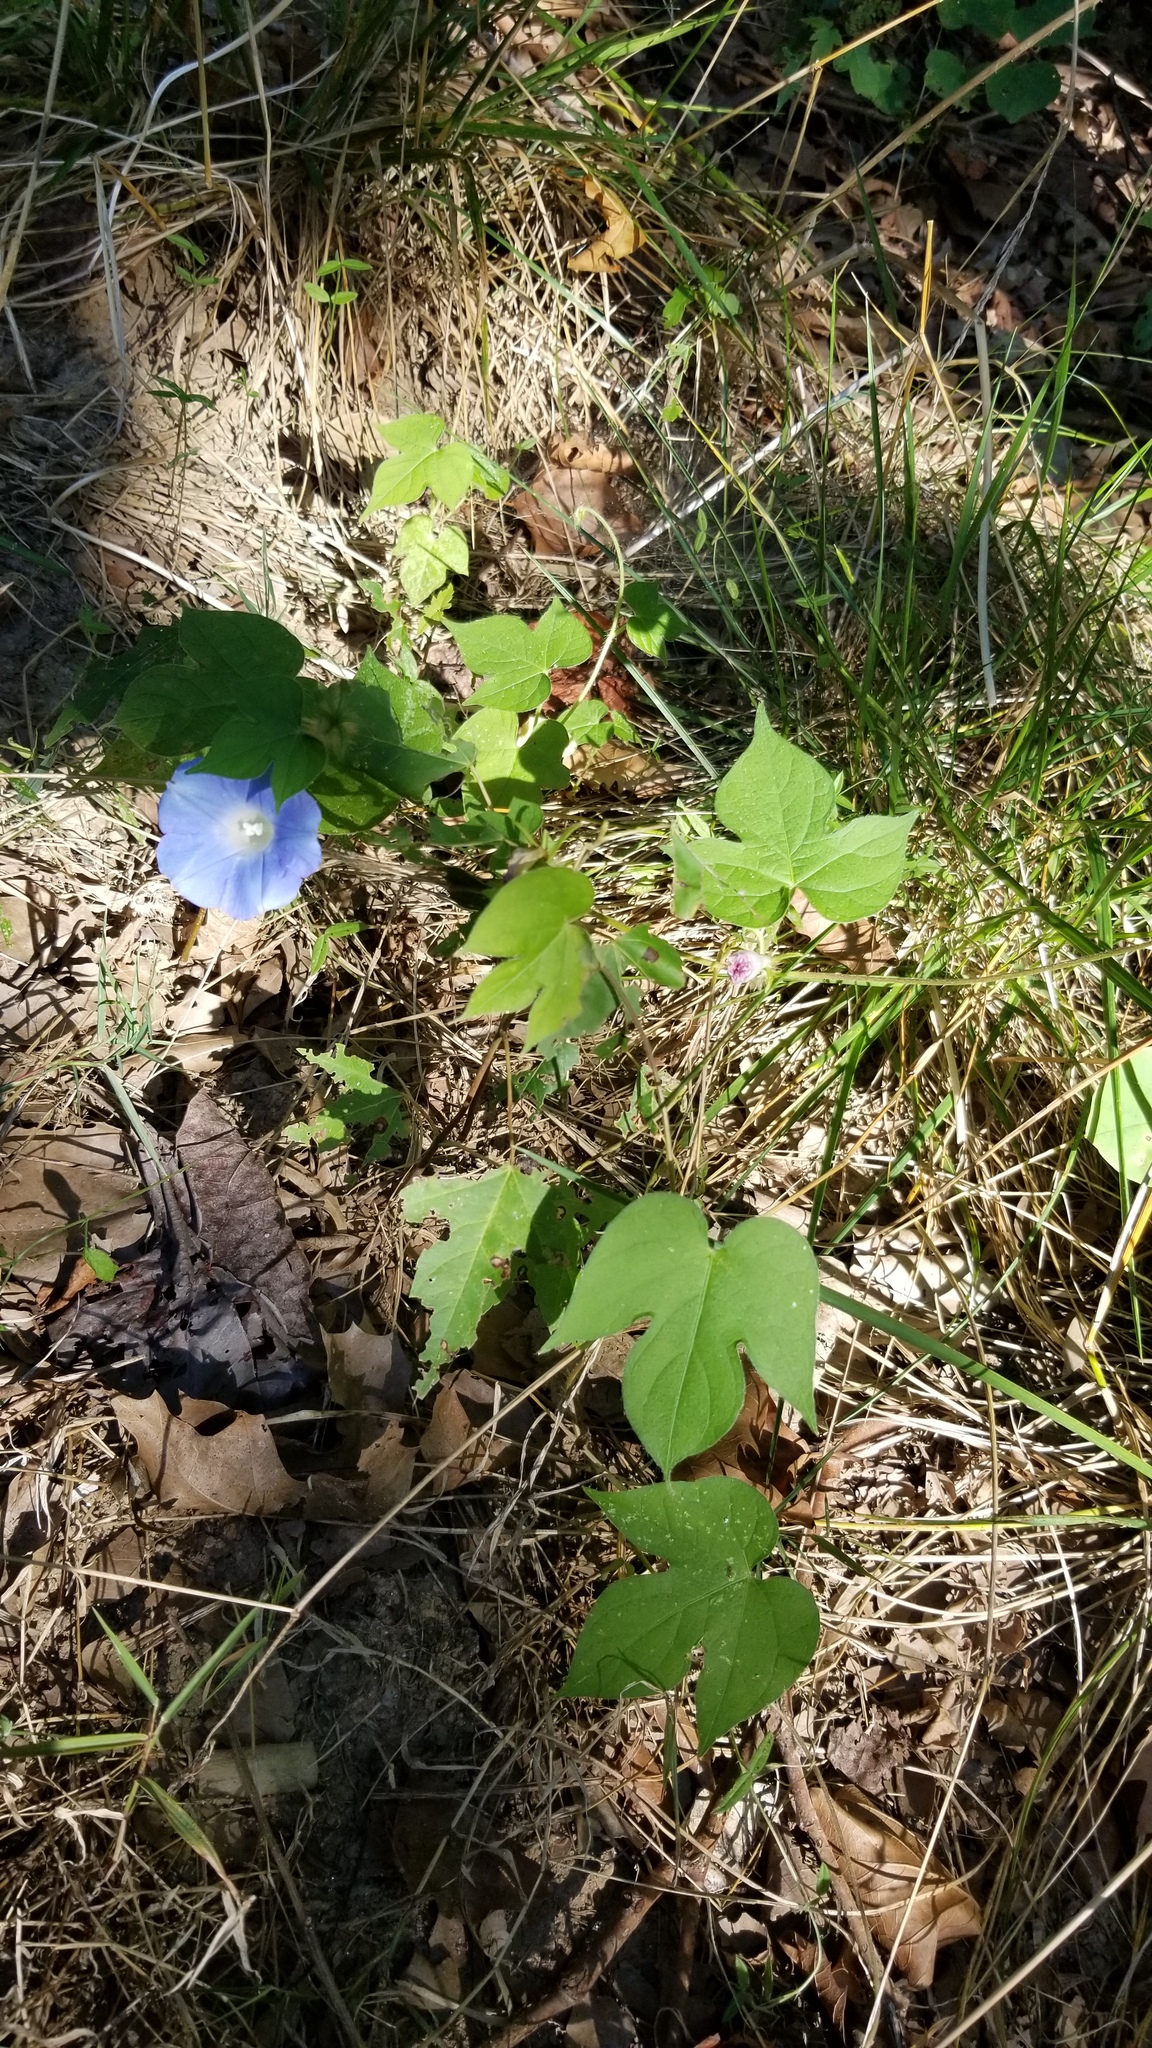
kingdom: Plantae
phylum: Tracheophyta
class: Magnoliopsida
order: Solanales
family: Convolvulaceae
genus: Ipomoea
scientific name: Ipomoea hederacea
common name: Ivy-leaved morning-glory
